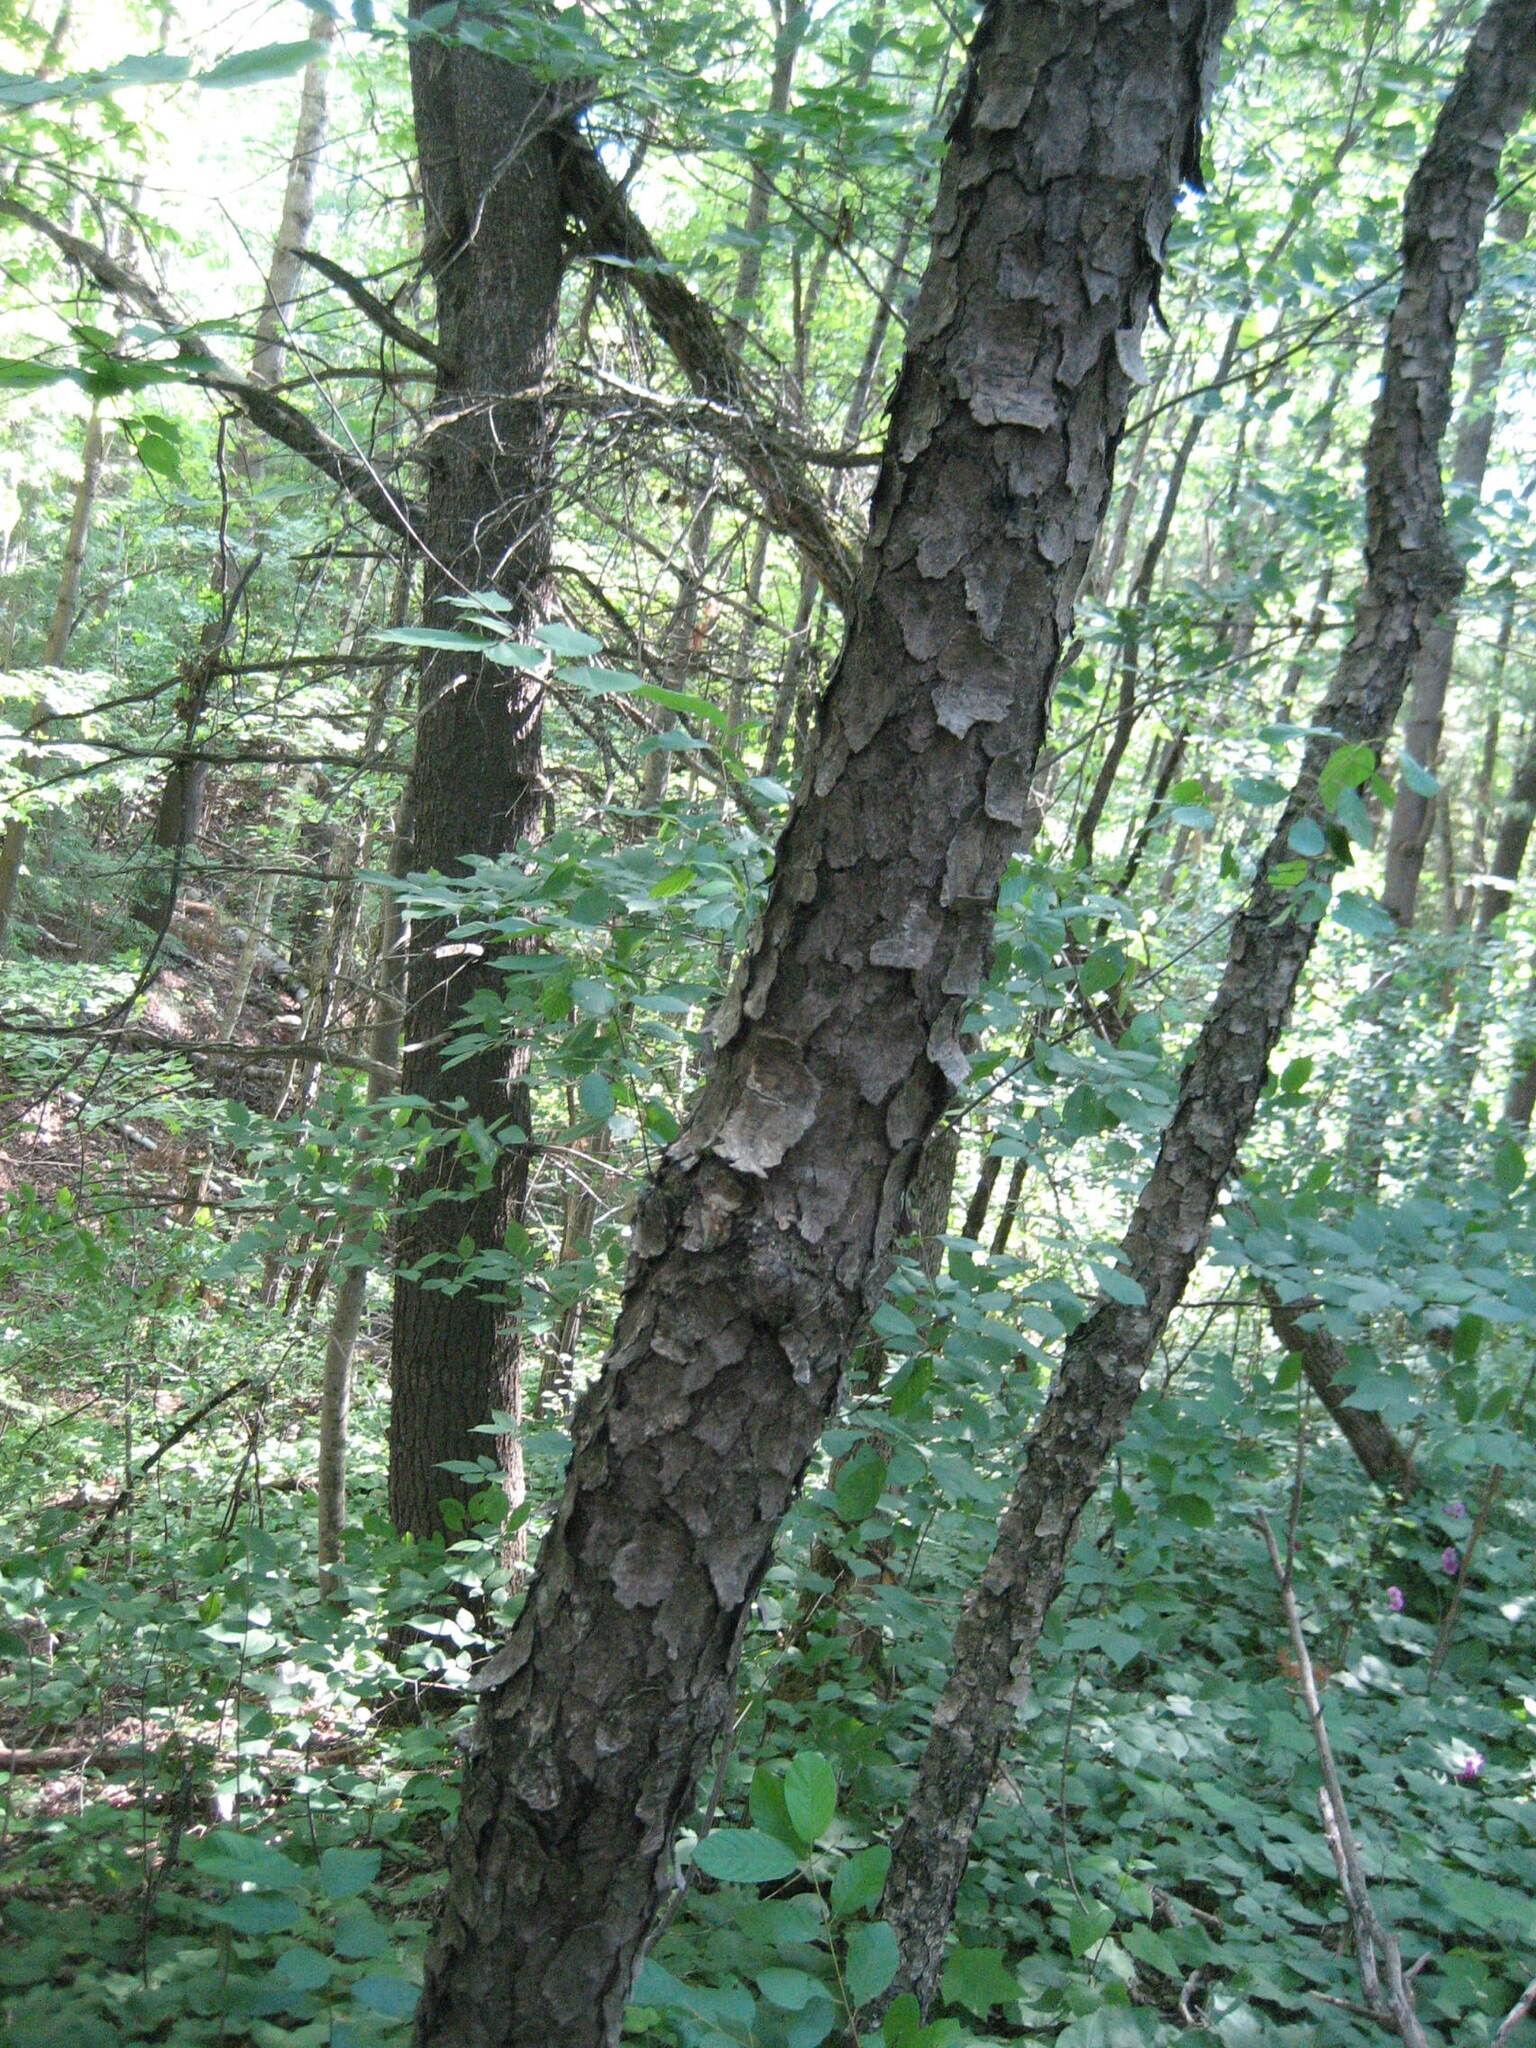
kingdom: Plantae
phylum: Tracheophyta
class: Magnoliopsida
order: Rosales
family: Rosaceae
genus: Prunus
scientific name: Prunus serotina
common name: Black cherry
